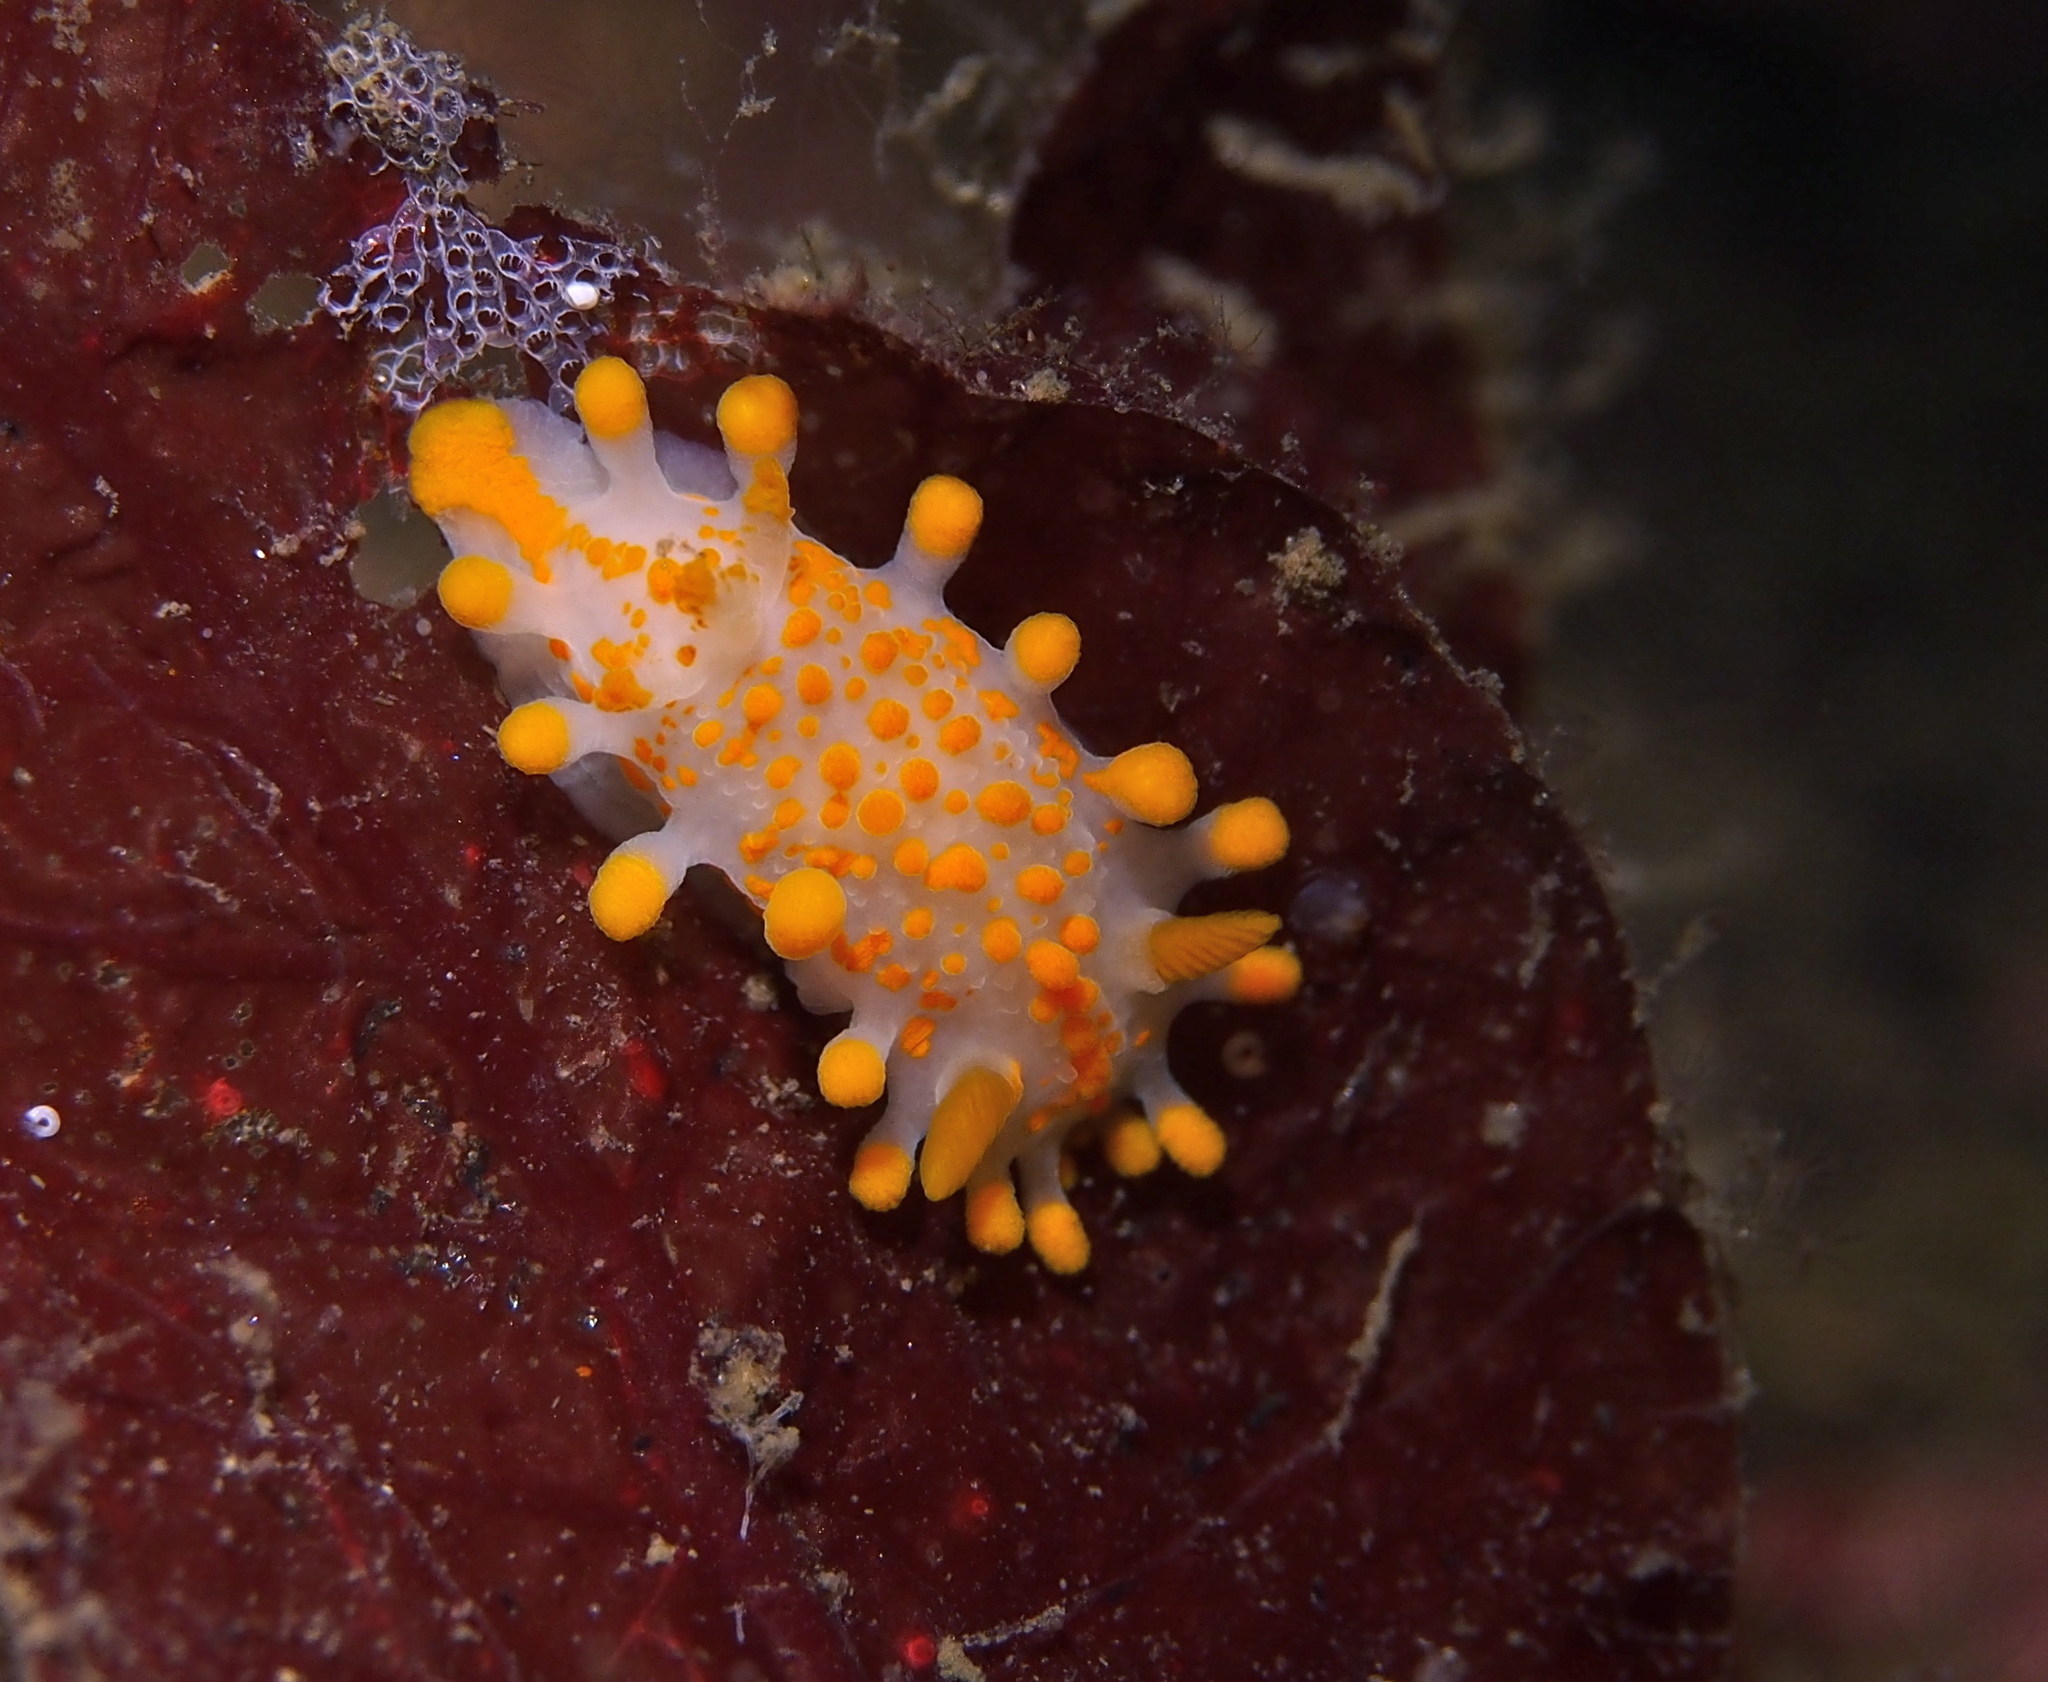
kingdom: Animalia
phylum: Mollusca
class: Gastropoda
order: Nudibranchia
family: Polyceridae
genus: Limacia
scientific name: Limacia clavigera
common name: Orange-clubbed sea slug
